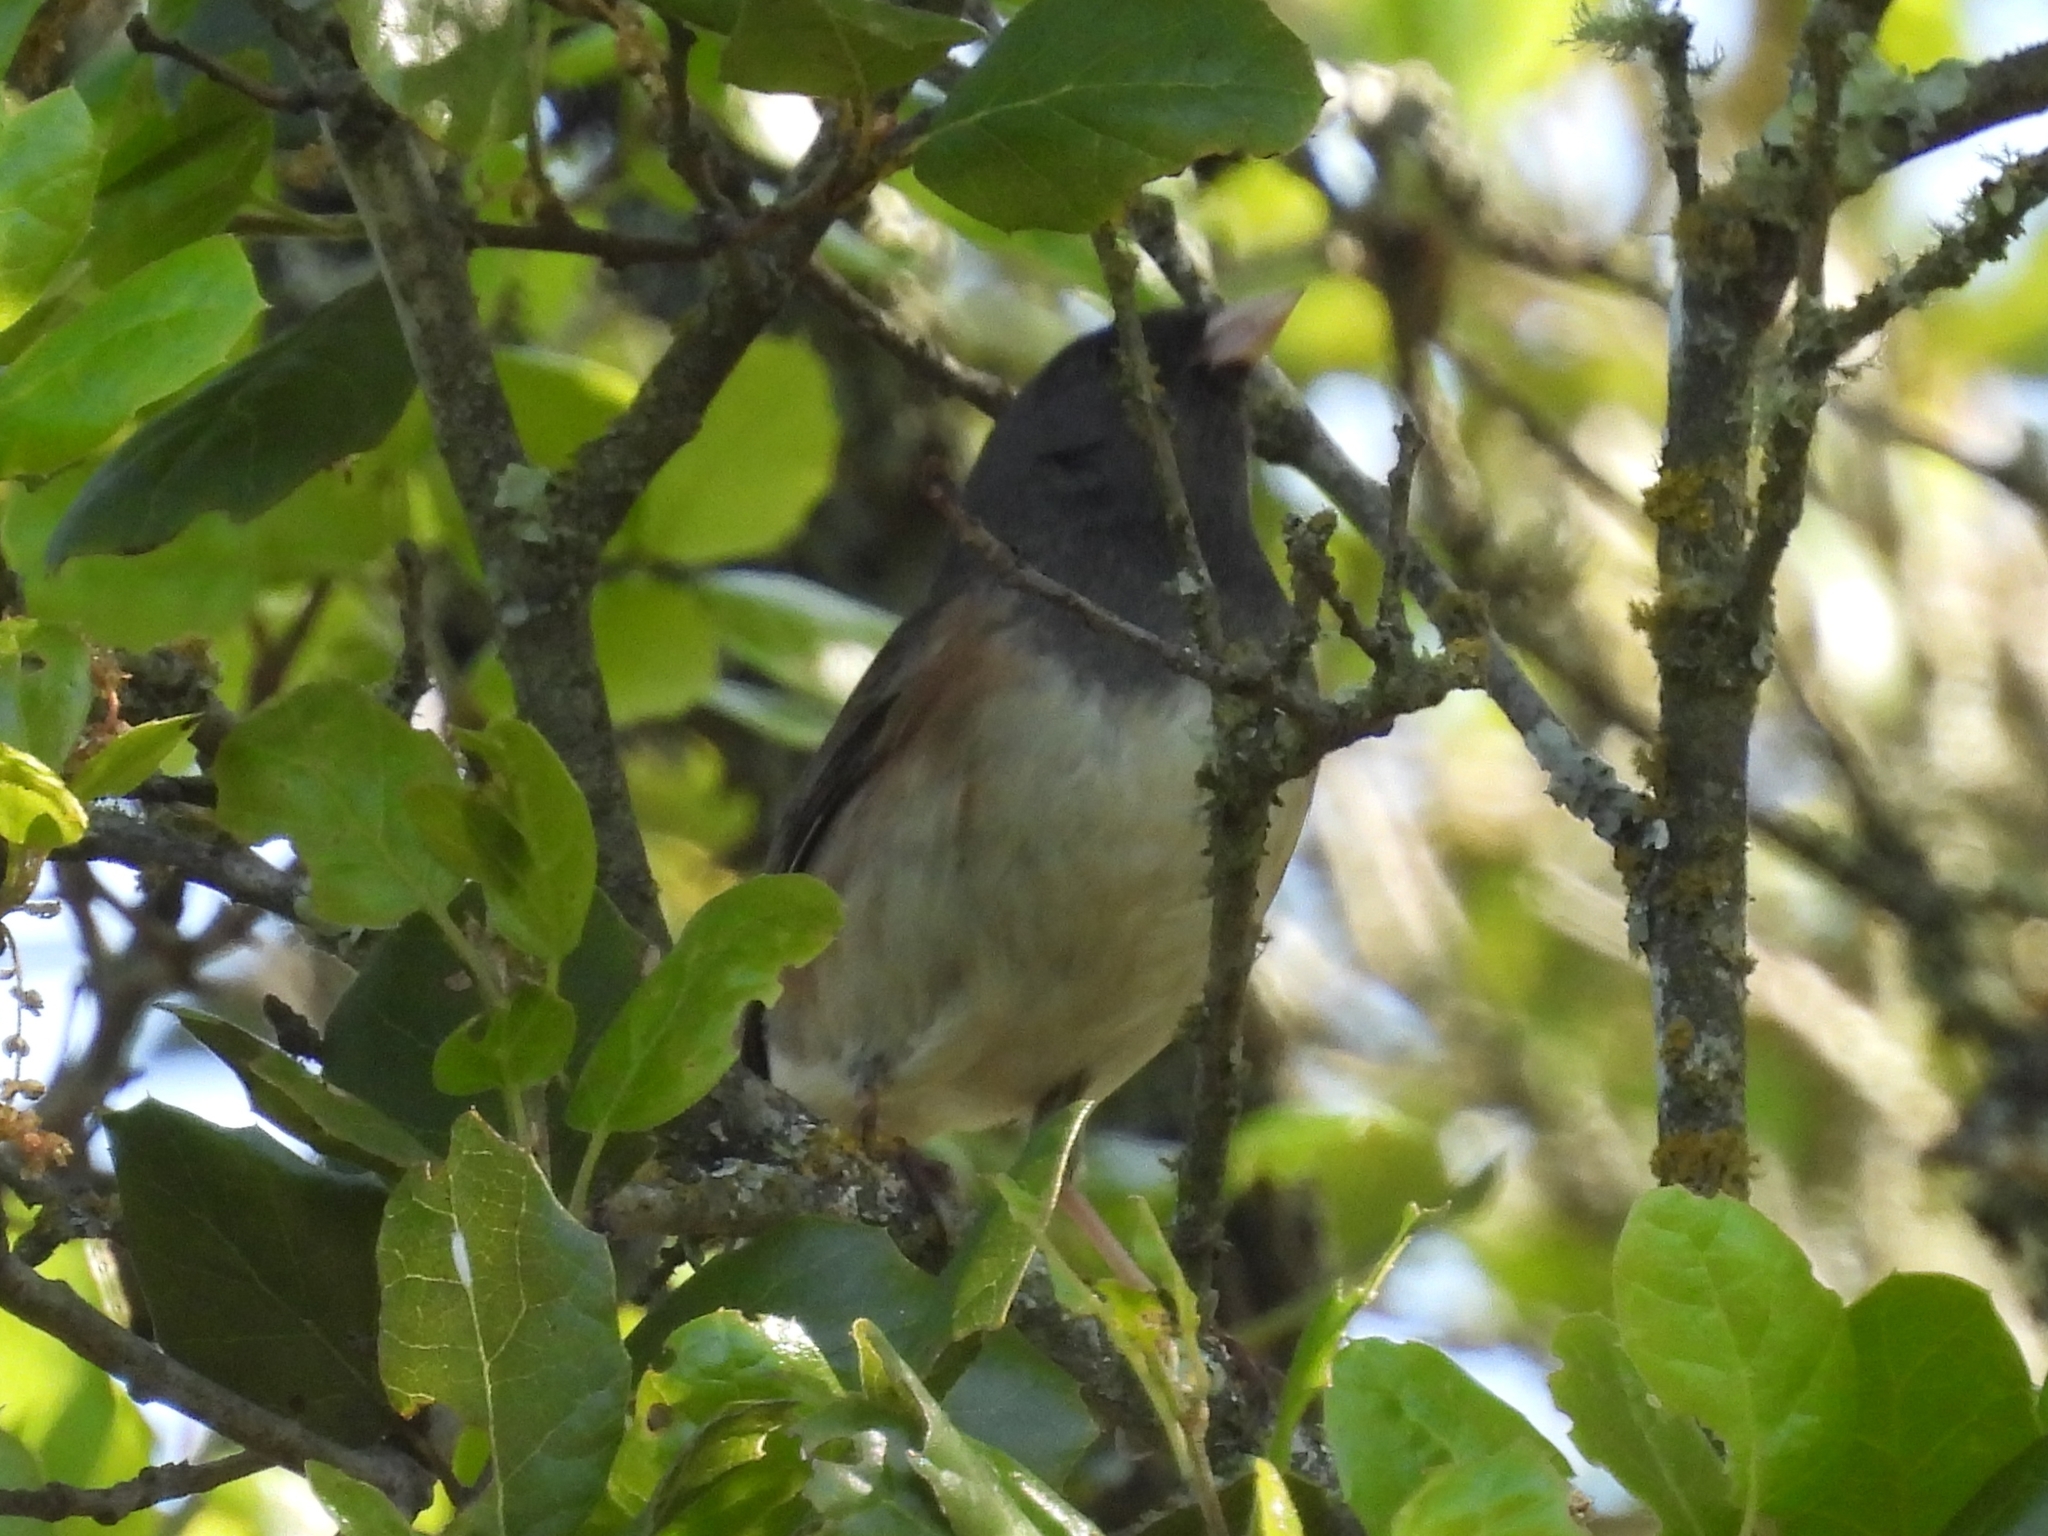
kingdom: Animalia
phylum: Chordata
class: Aves
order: Passeriformes
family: Passerellidae
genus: Junco
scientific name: Junco hyemalis
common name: Dark-eyed junco
